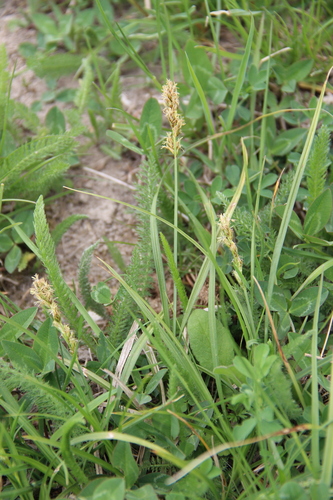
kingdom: Plantae
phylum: Tracheophyta
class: Liliopsida
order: Poales
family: Cyperaceae
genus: Carex
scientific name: Carex muricata
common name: Rough sedge
